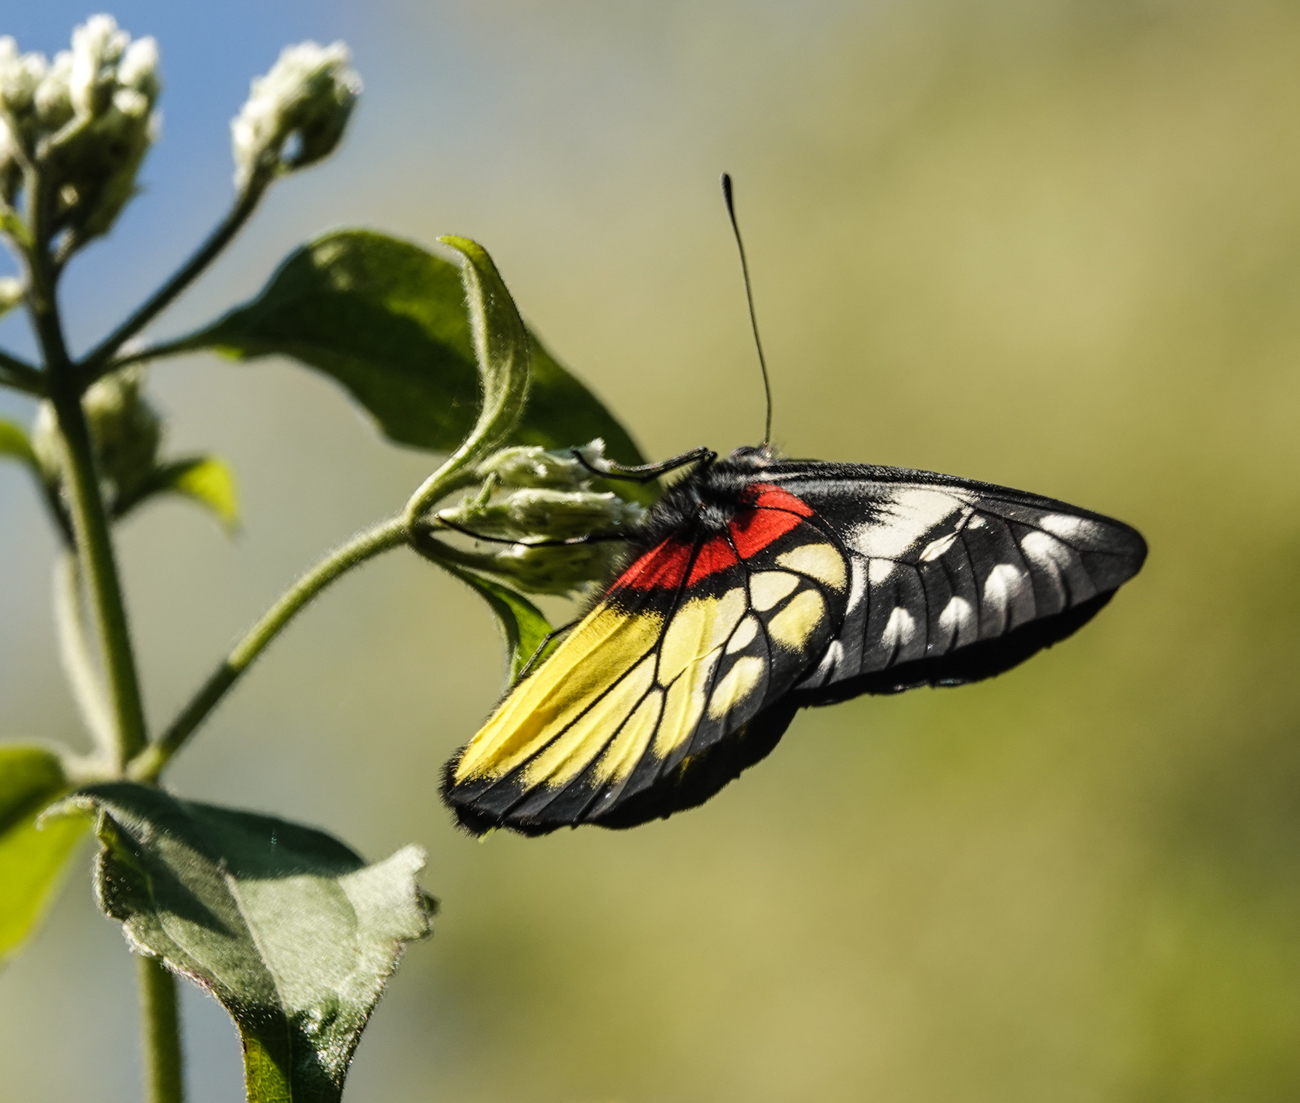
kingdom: Animalia
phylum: Arthropoda
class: Insecta
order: Lepidoptera
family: Pieridae
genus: Delias
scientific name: Delias pasithoe
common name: Red-base jezebel
